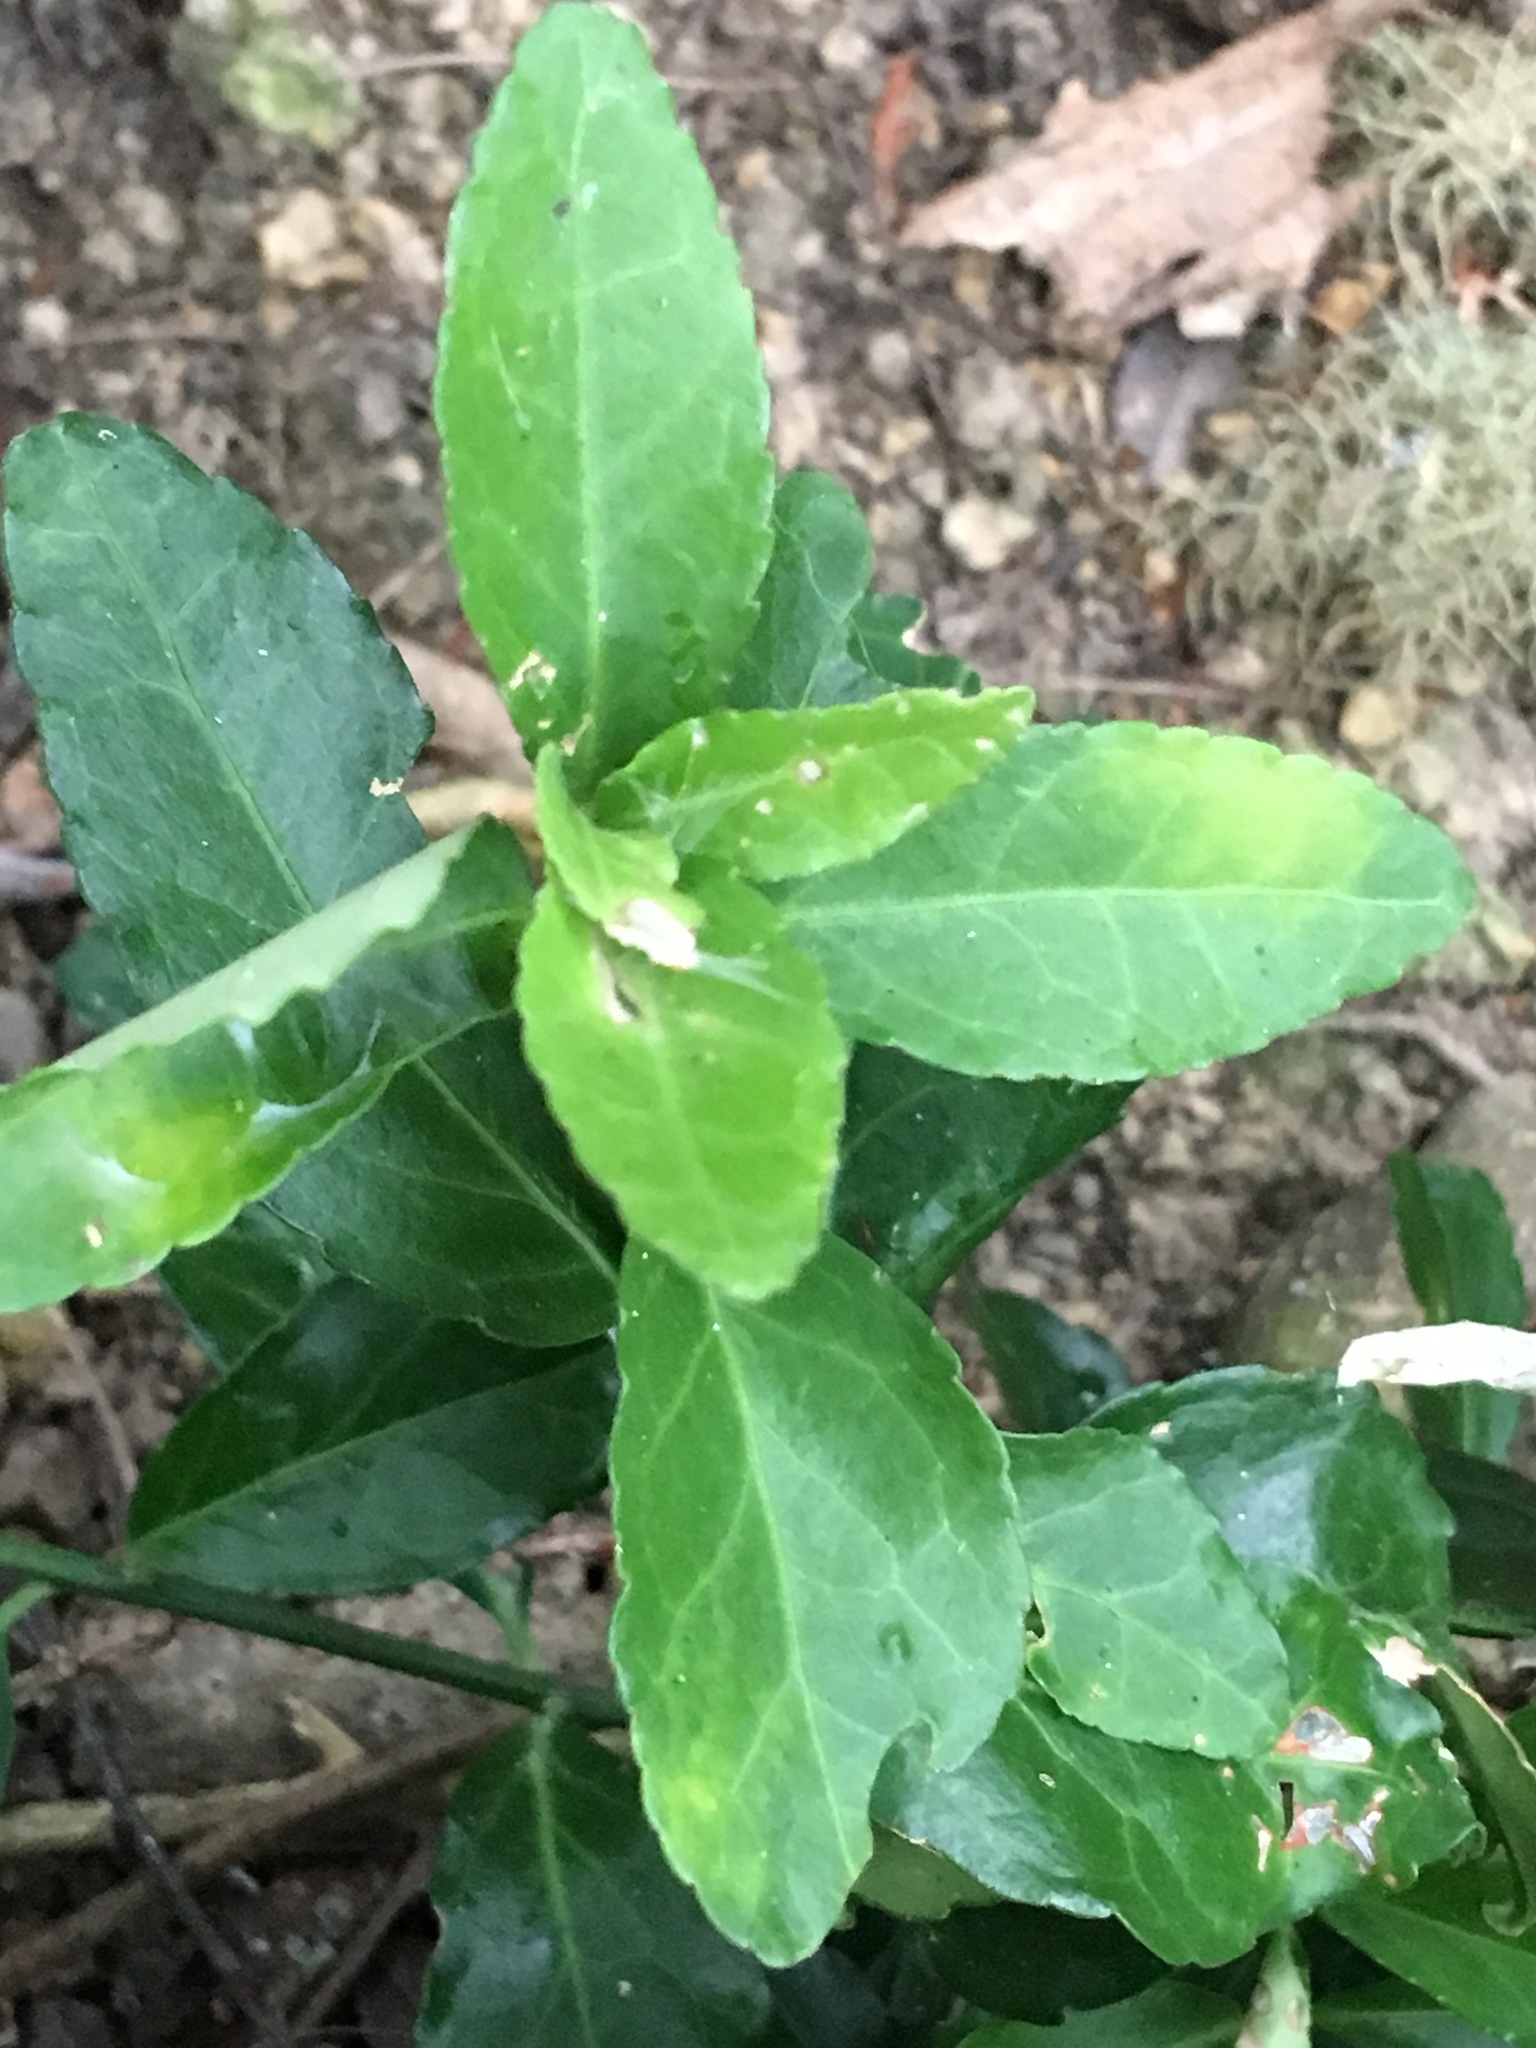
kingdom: Plantae
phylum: Tracheophyta
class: Magnoliopsida
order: Celastrales
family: Celastraceae
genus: Euonymus
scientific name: Euonymus japonicus
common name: Japanese spindletree
